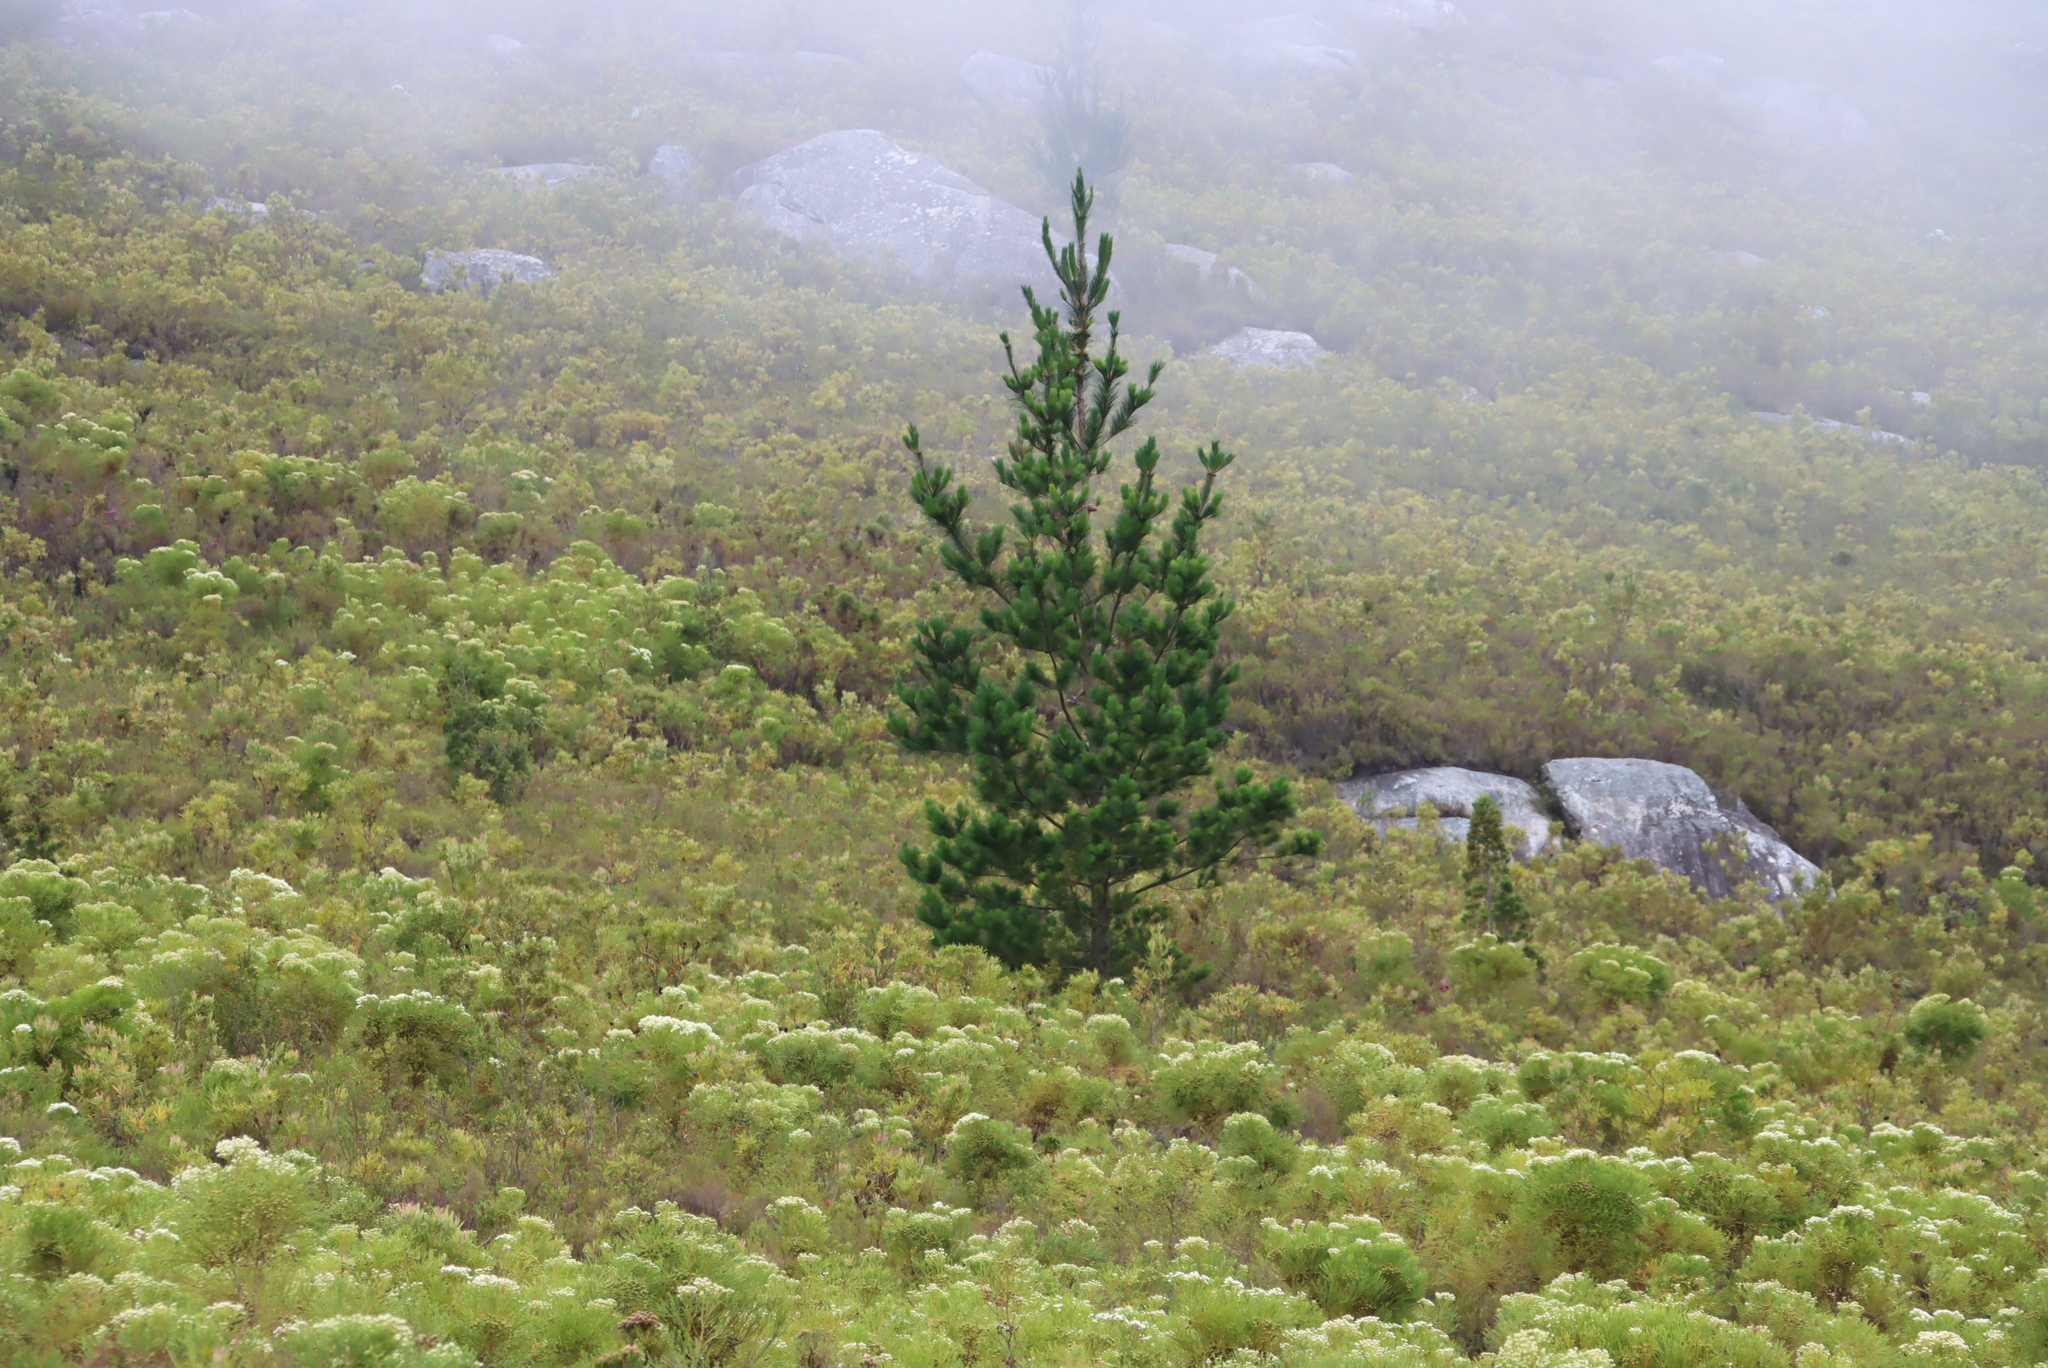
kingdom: Plantae
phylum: Tracheophyta
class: Pinopsida
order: Pinales
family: Pinaceae
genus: Pinus
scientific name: Pinus radiata
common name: Monterey pine
